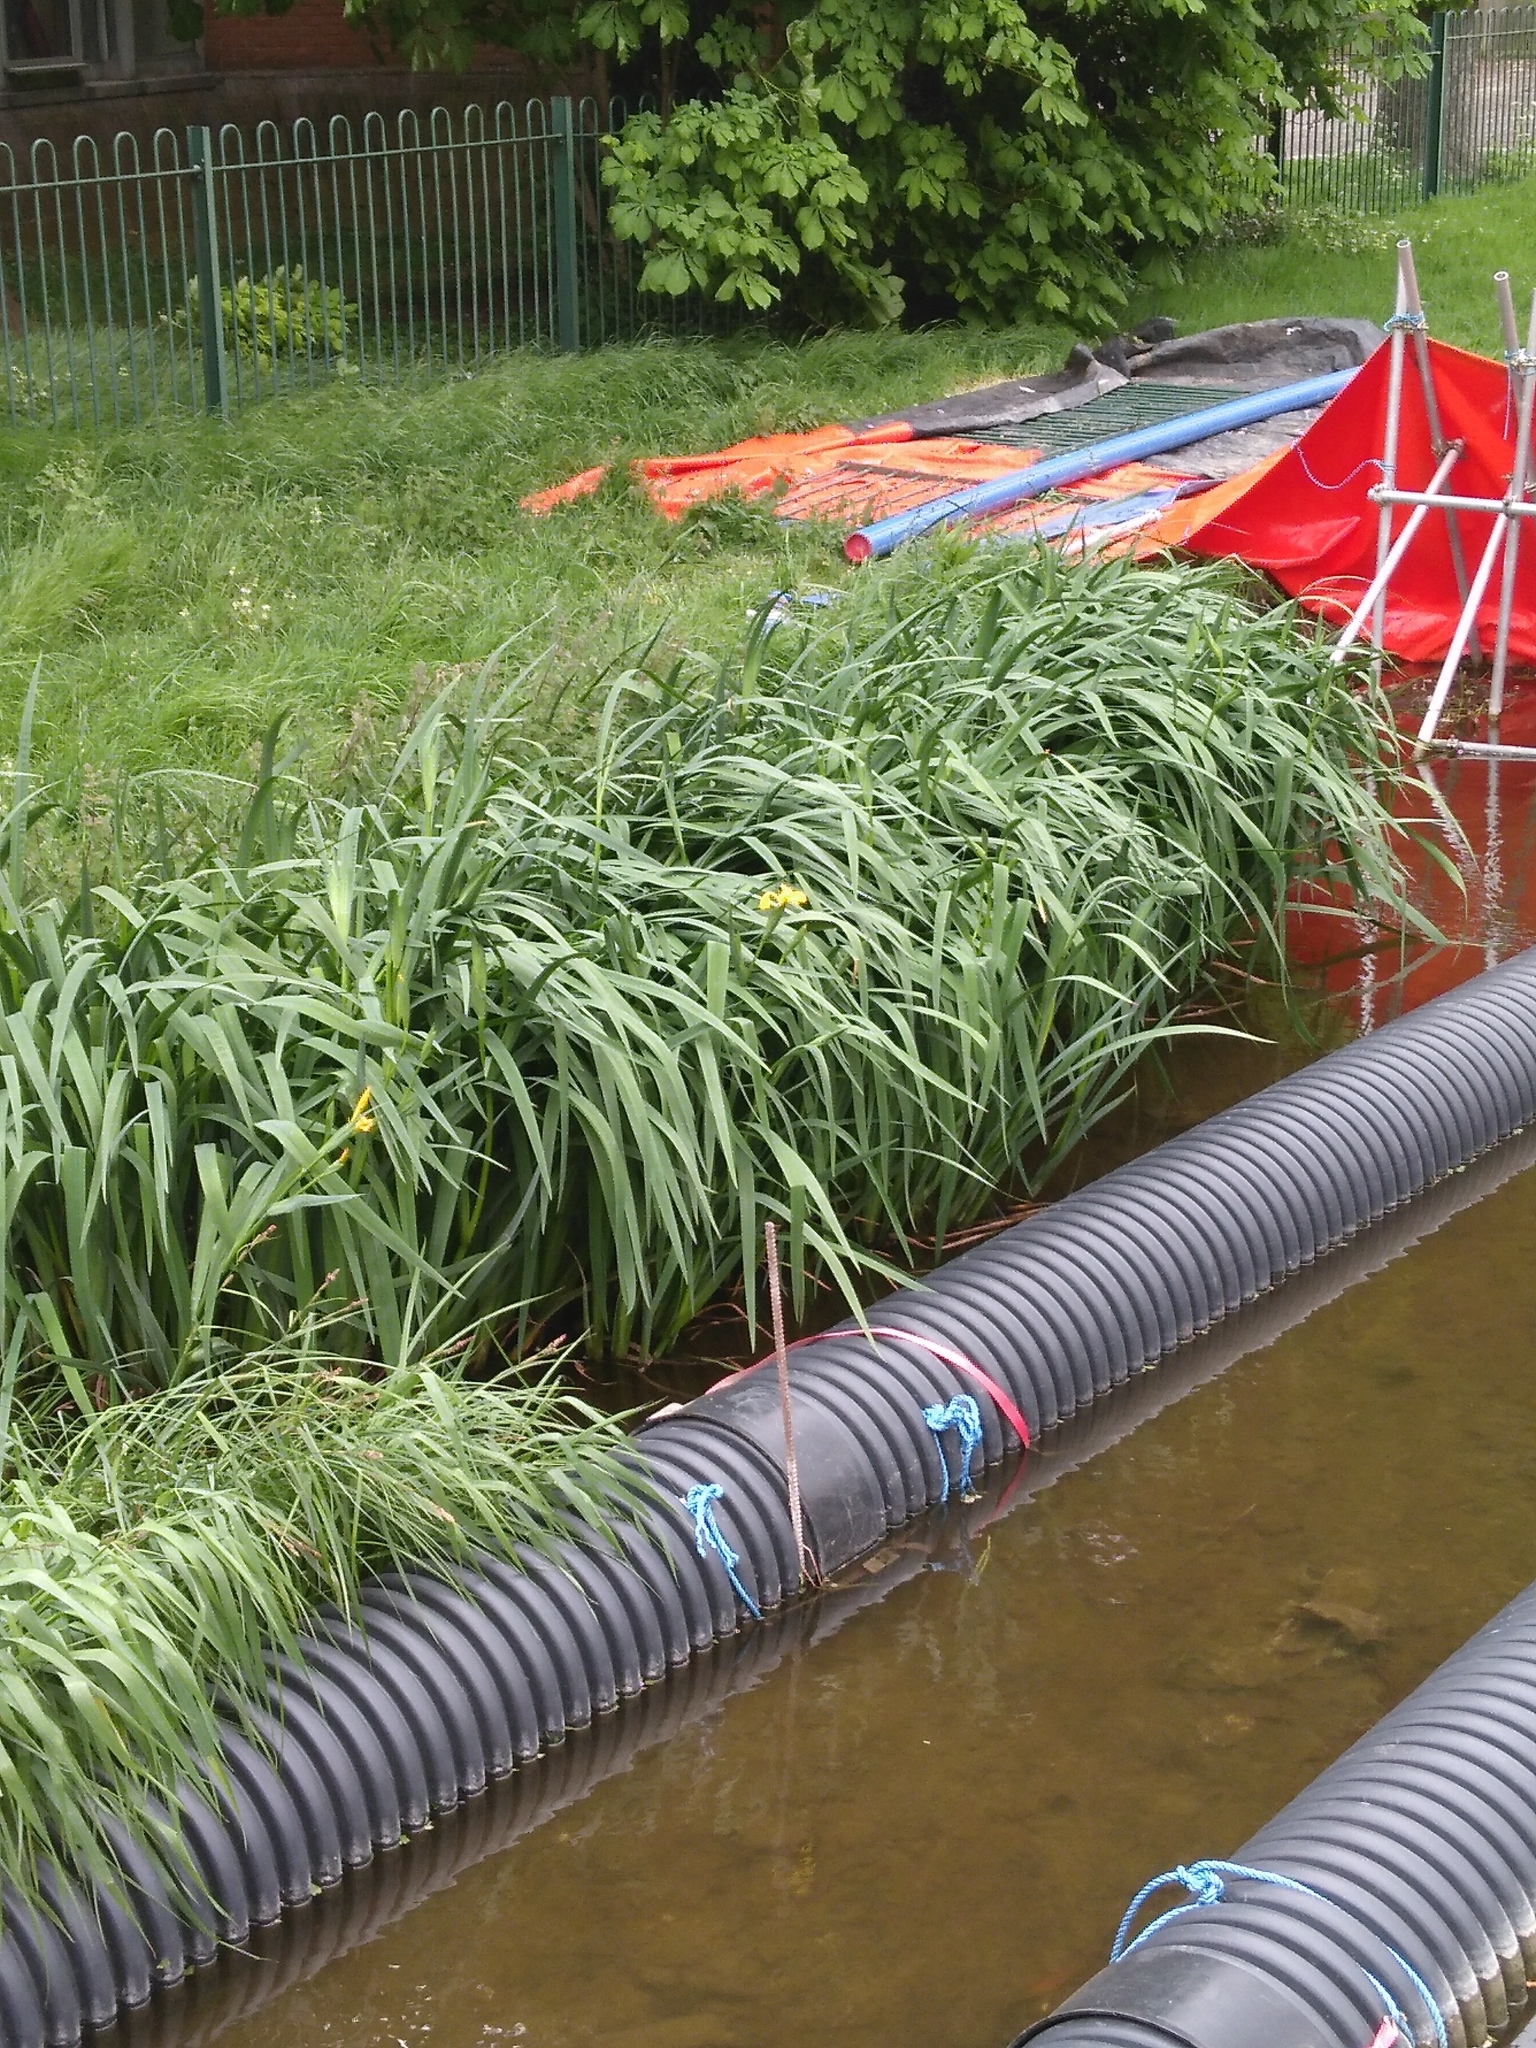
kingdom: Plantae
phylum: Tracheophyta
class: Liliopsida
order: Asparagales
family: Iridaceae
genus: Iris
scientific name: Iris pseudacorus
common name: Yellow flag
